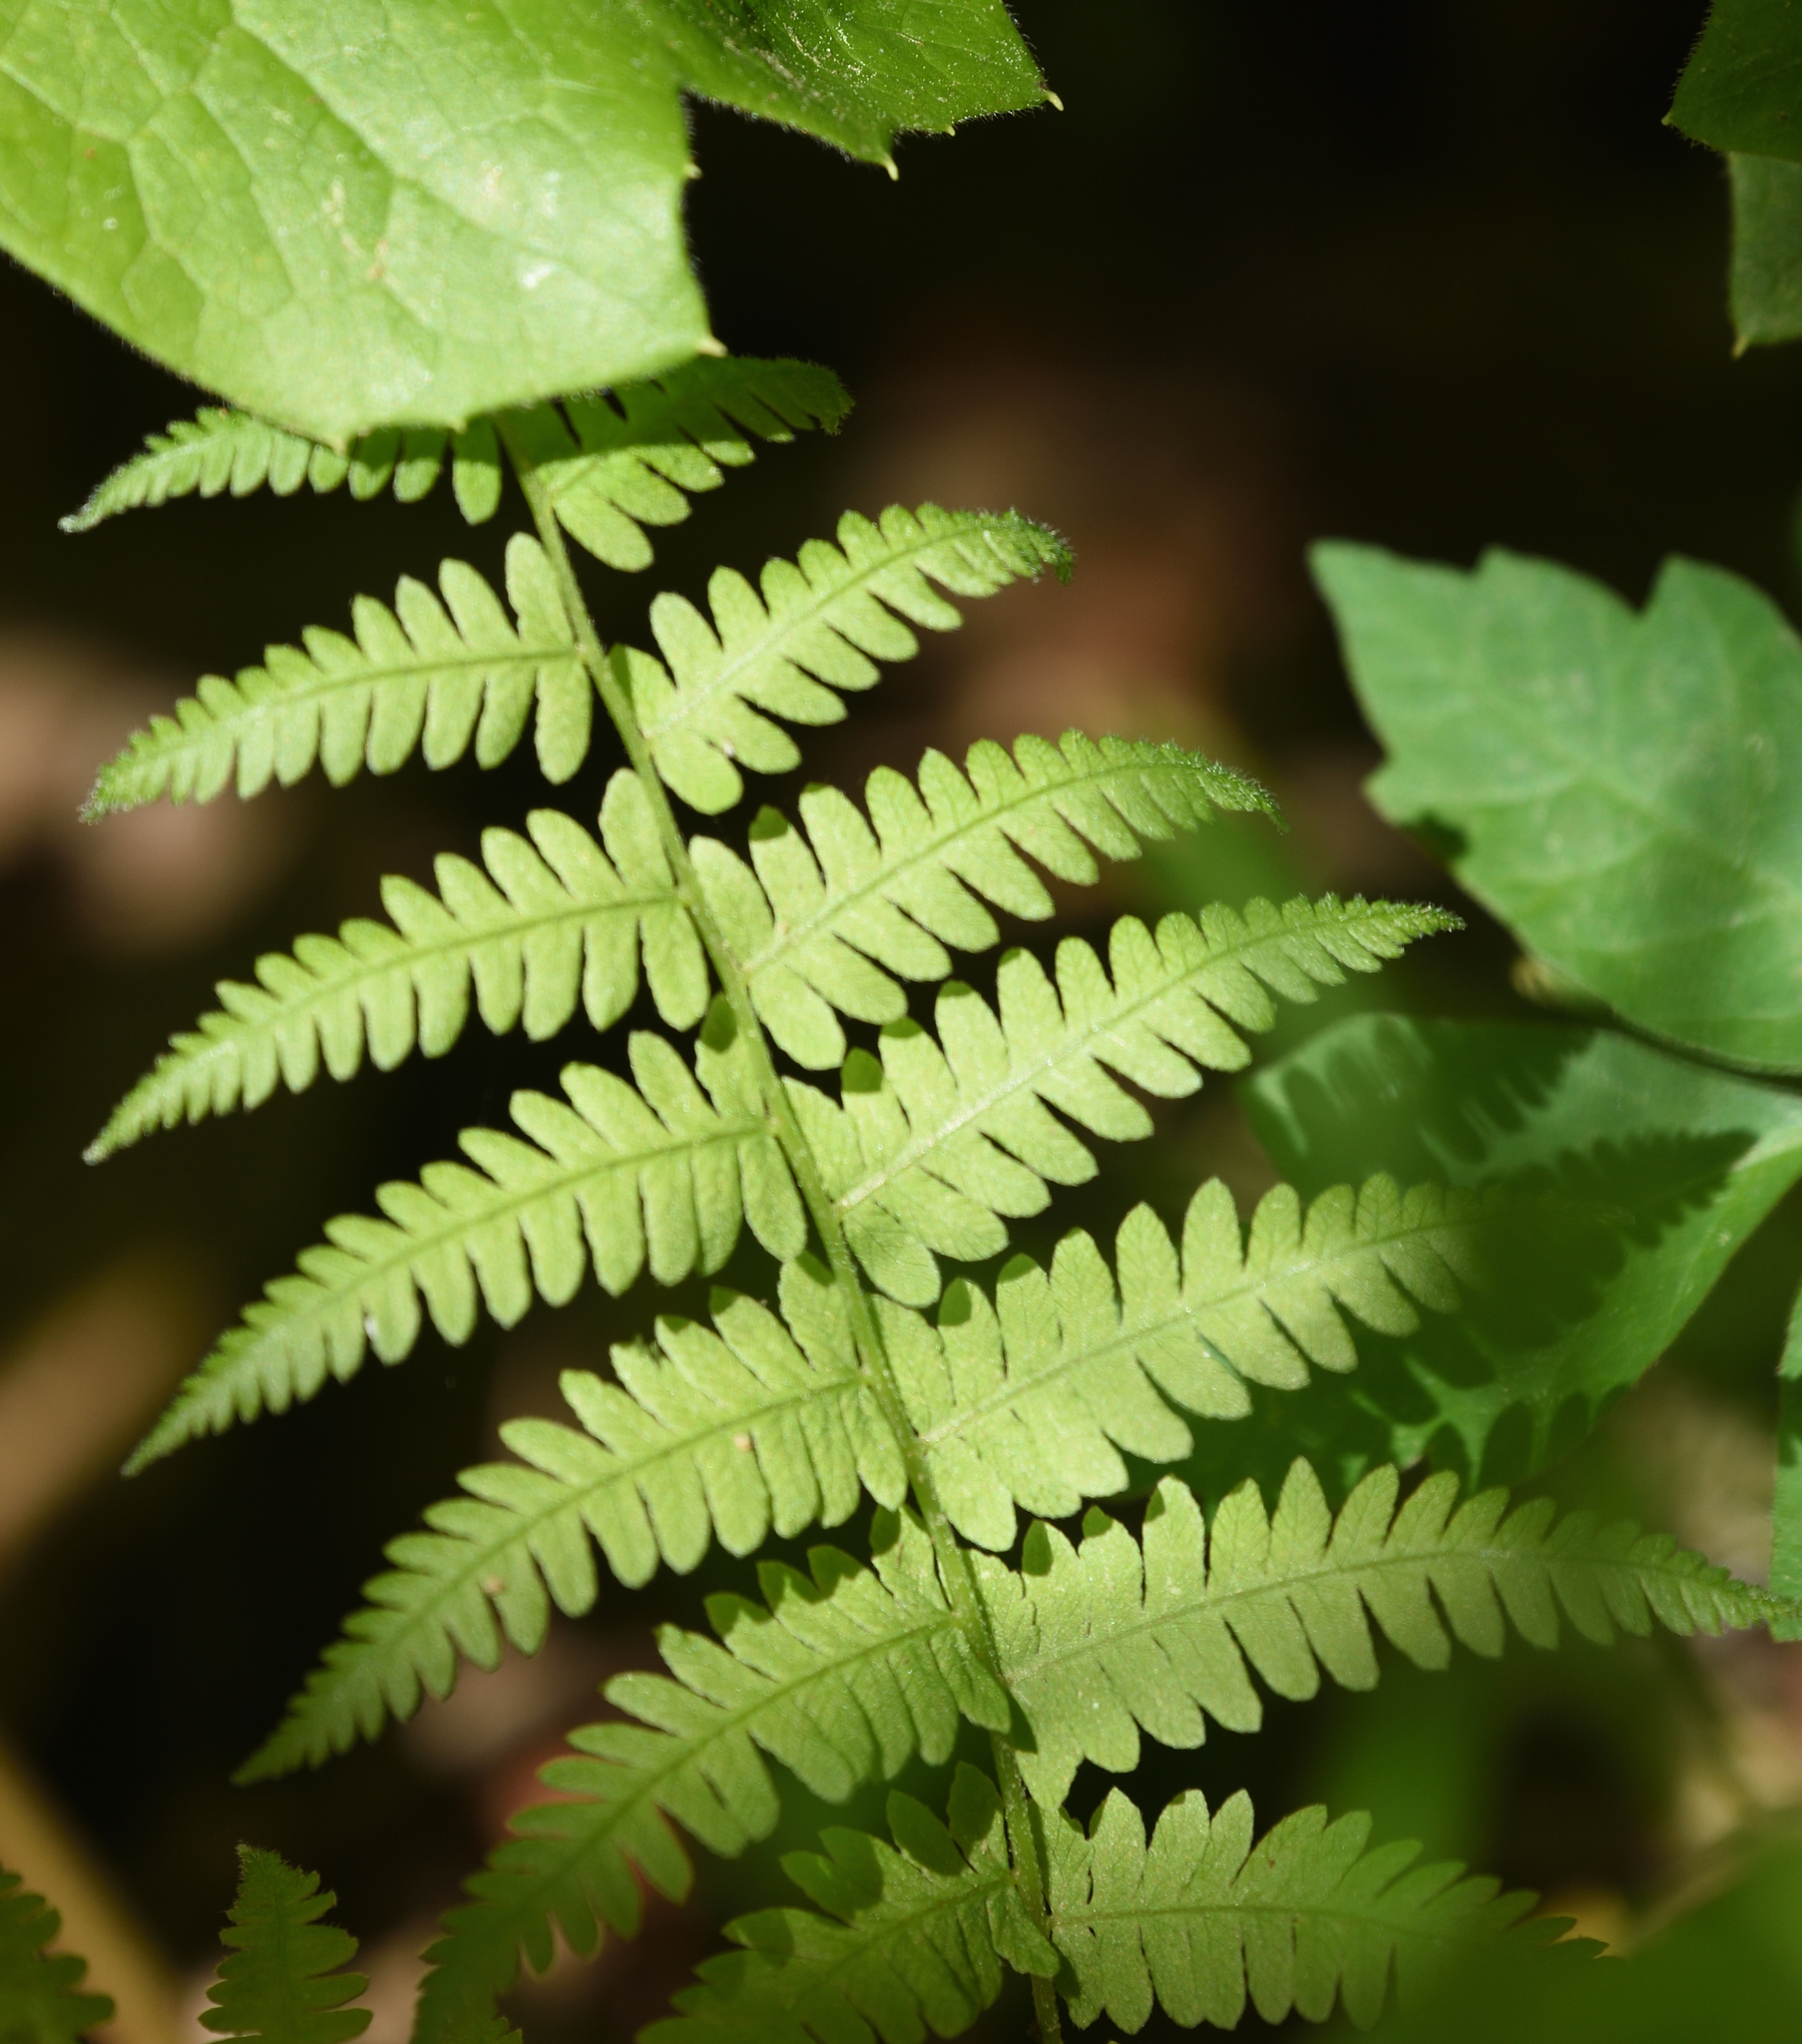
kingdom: Plantae
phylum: Tracheophyta
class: Polypodiopsida
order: Polypodiales
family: Thelypteridaceae
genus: Amauropelta
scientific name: Amauropelta noveboracensis
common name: New york fern
